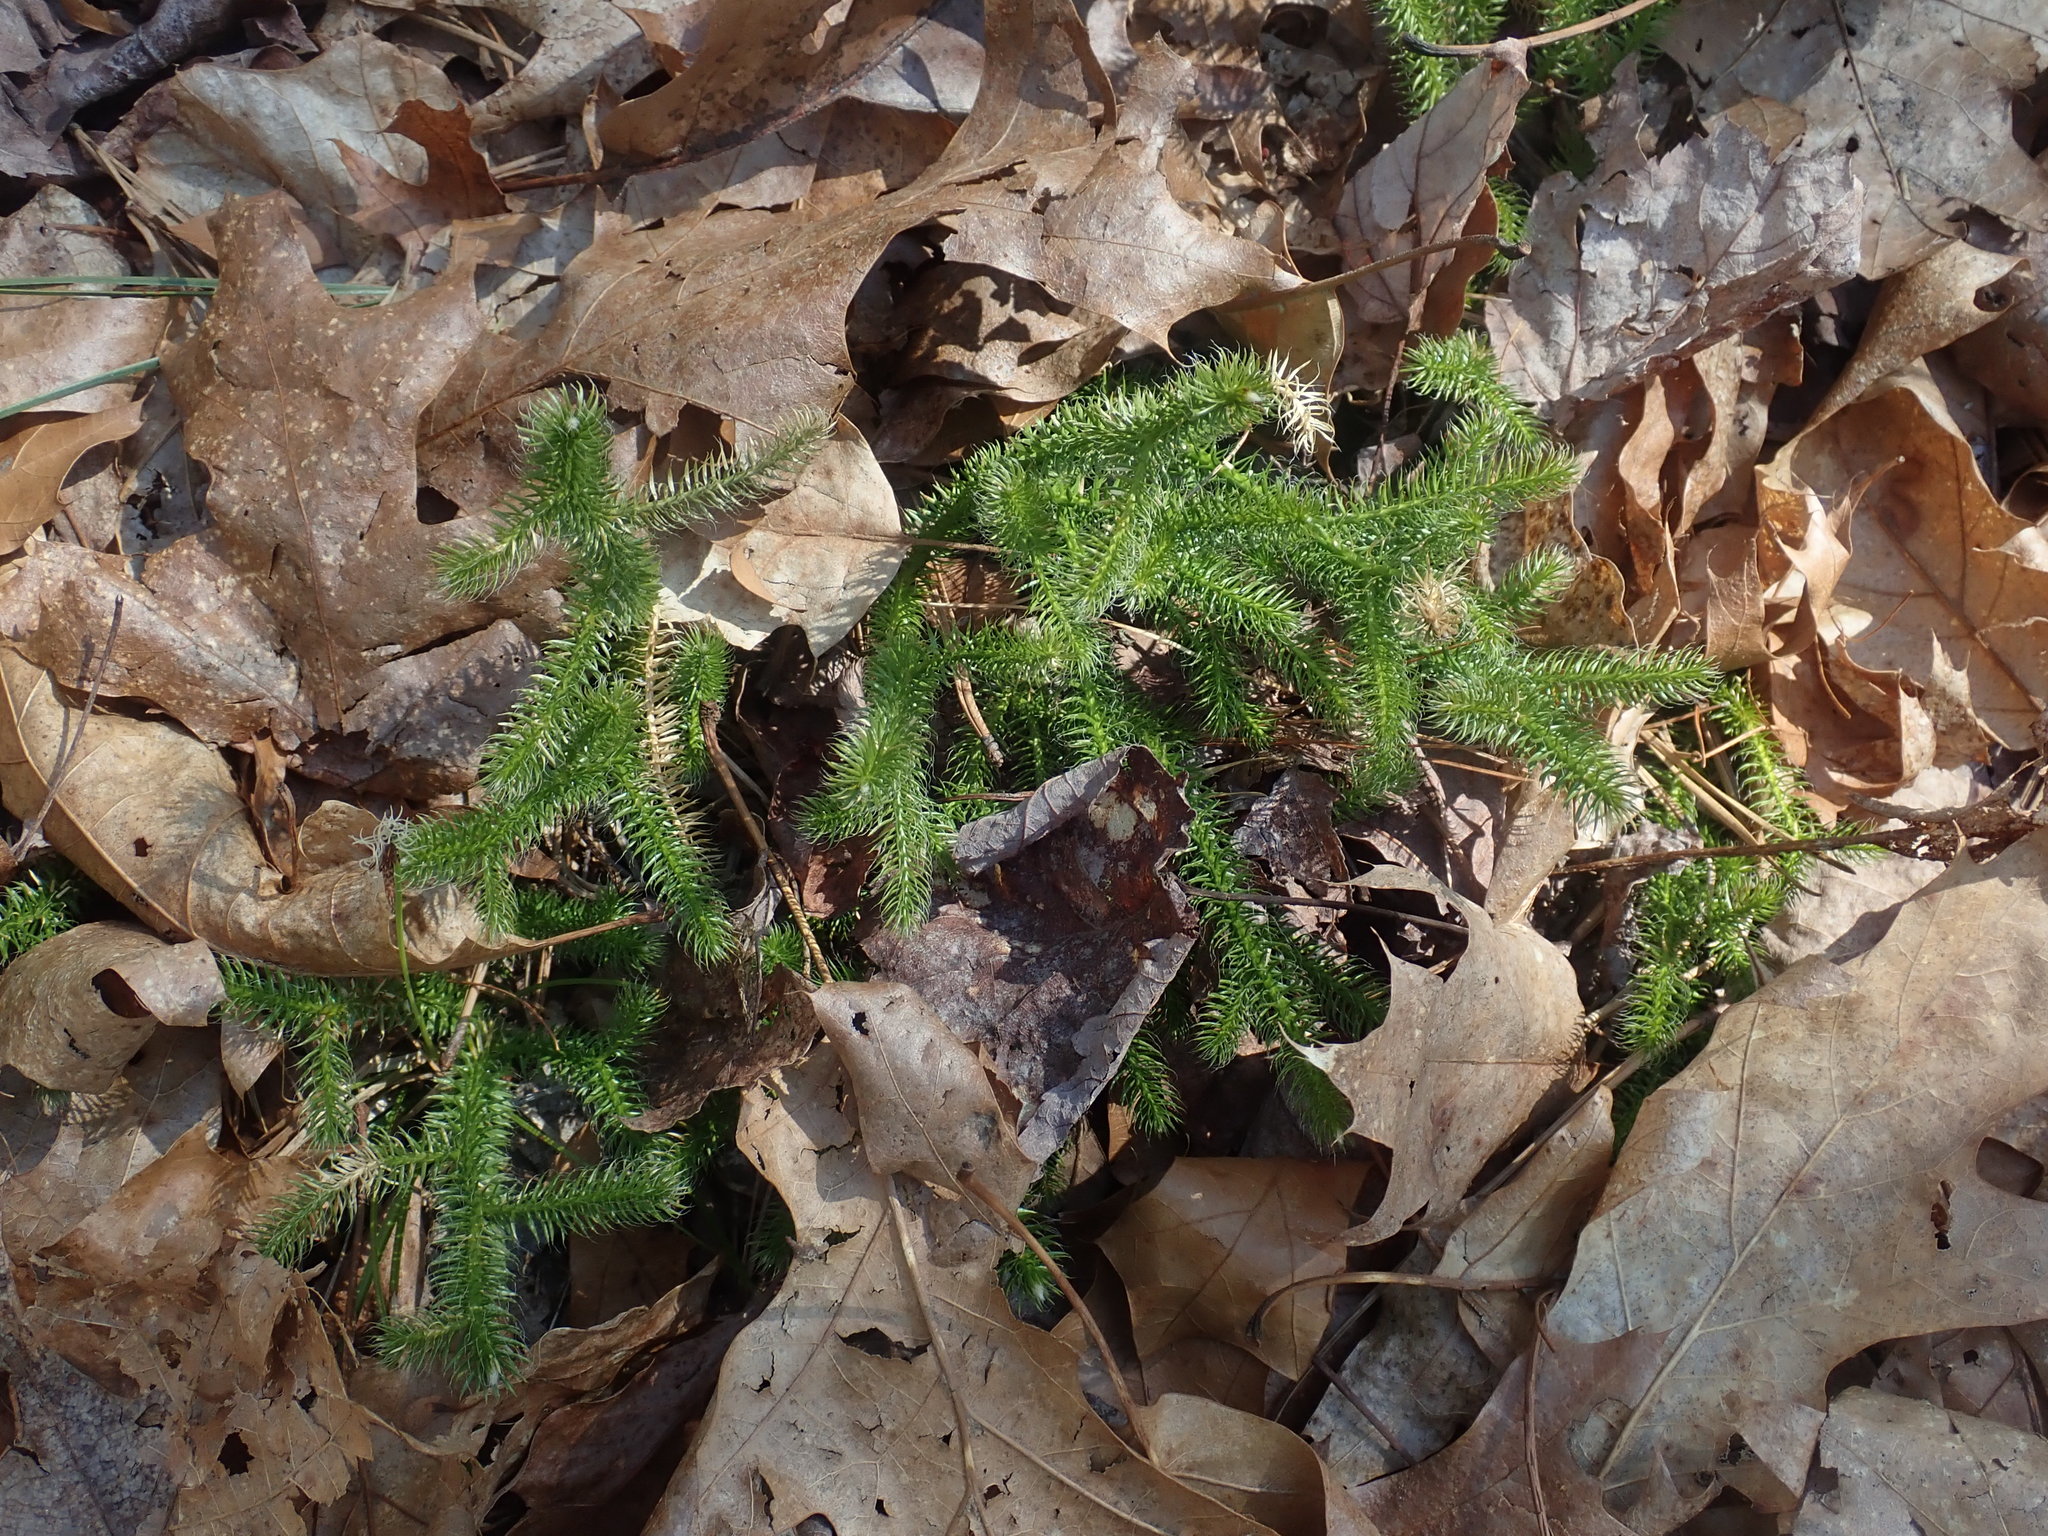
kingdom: Plantae
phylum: Tracheophyta
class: Lycopodiopsida
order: Lycopodiales
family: Lycopodiaceae
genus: Lycopodium
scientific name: Lycopodium clavatum
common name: Stag's-horn clubmoss
